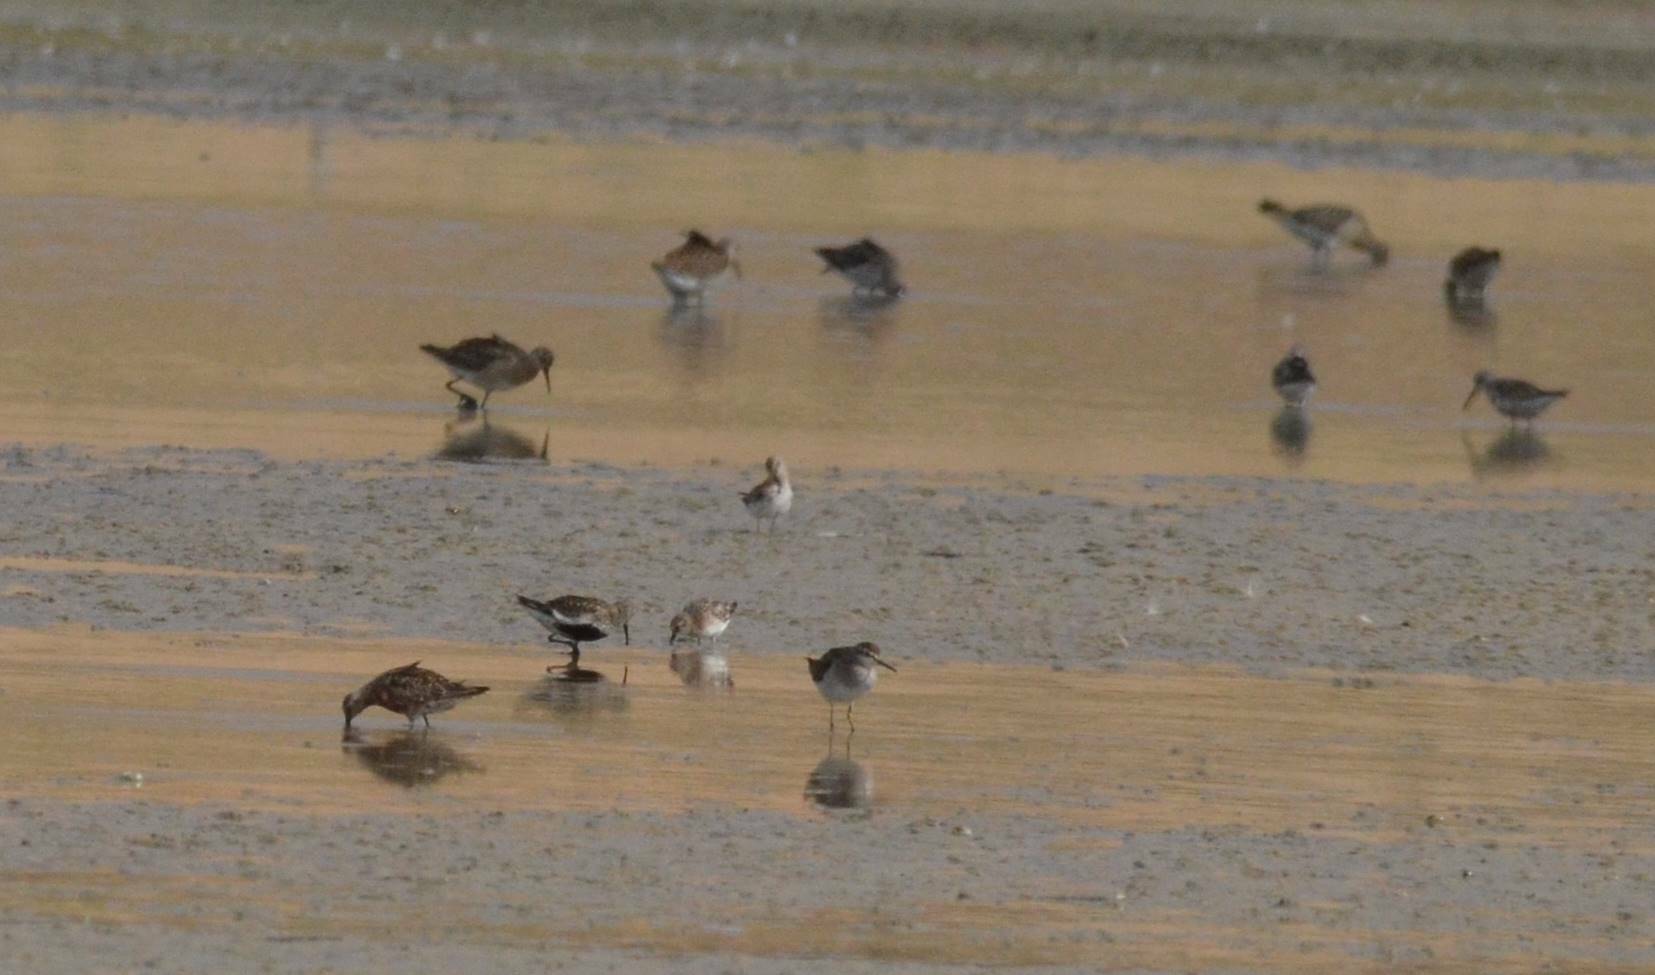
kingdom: Animalia
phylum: Chordata
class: Aves
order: Charadriiformes
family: Scolopacidae
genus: Calidris
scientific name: Calidris alpina
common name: Dunlin
